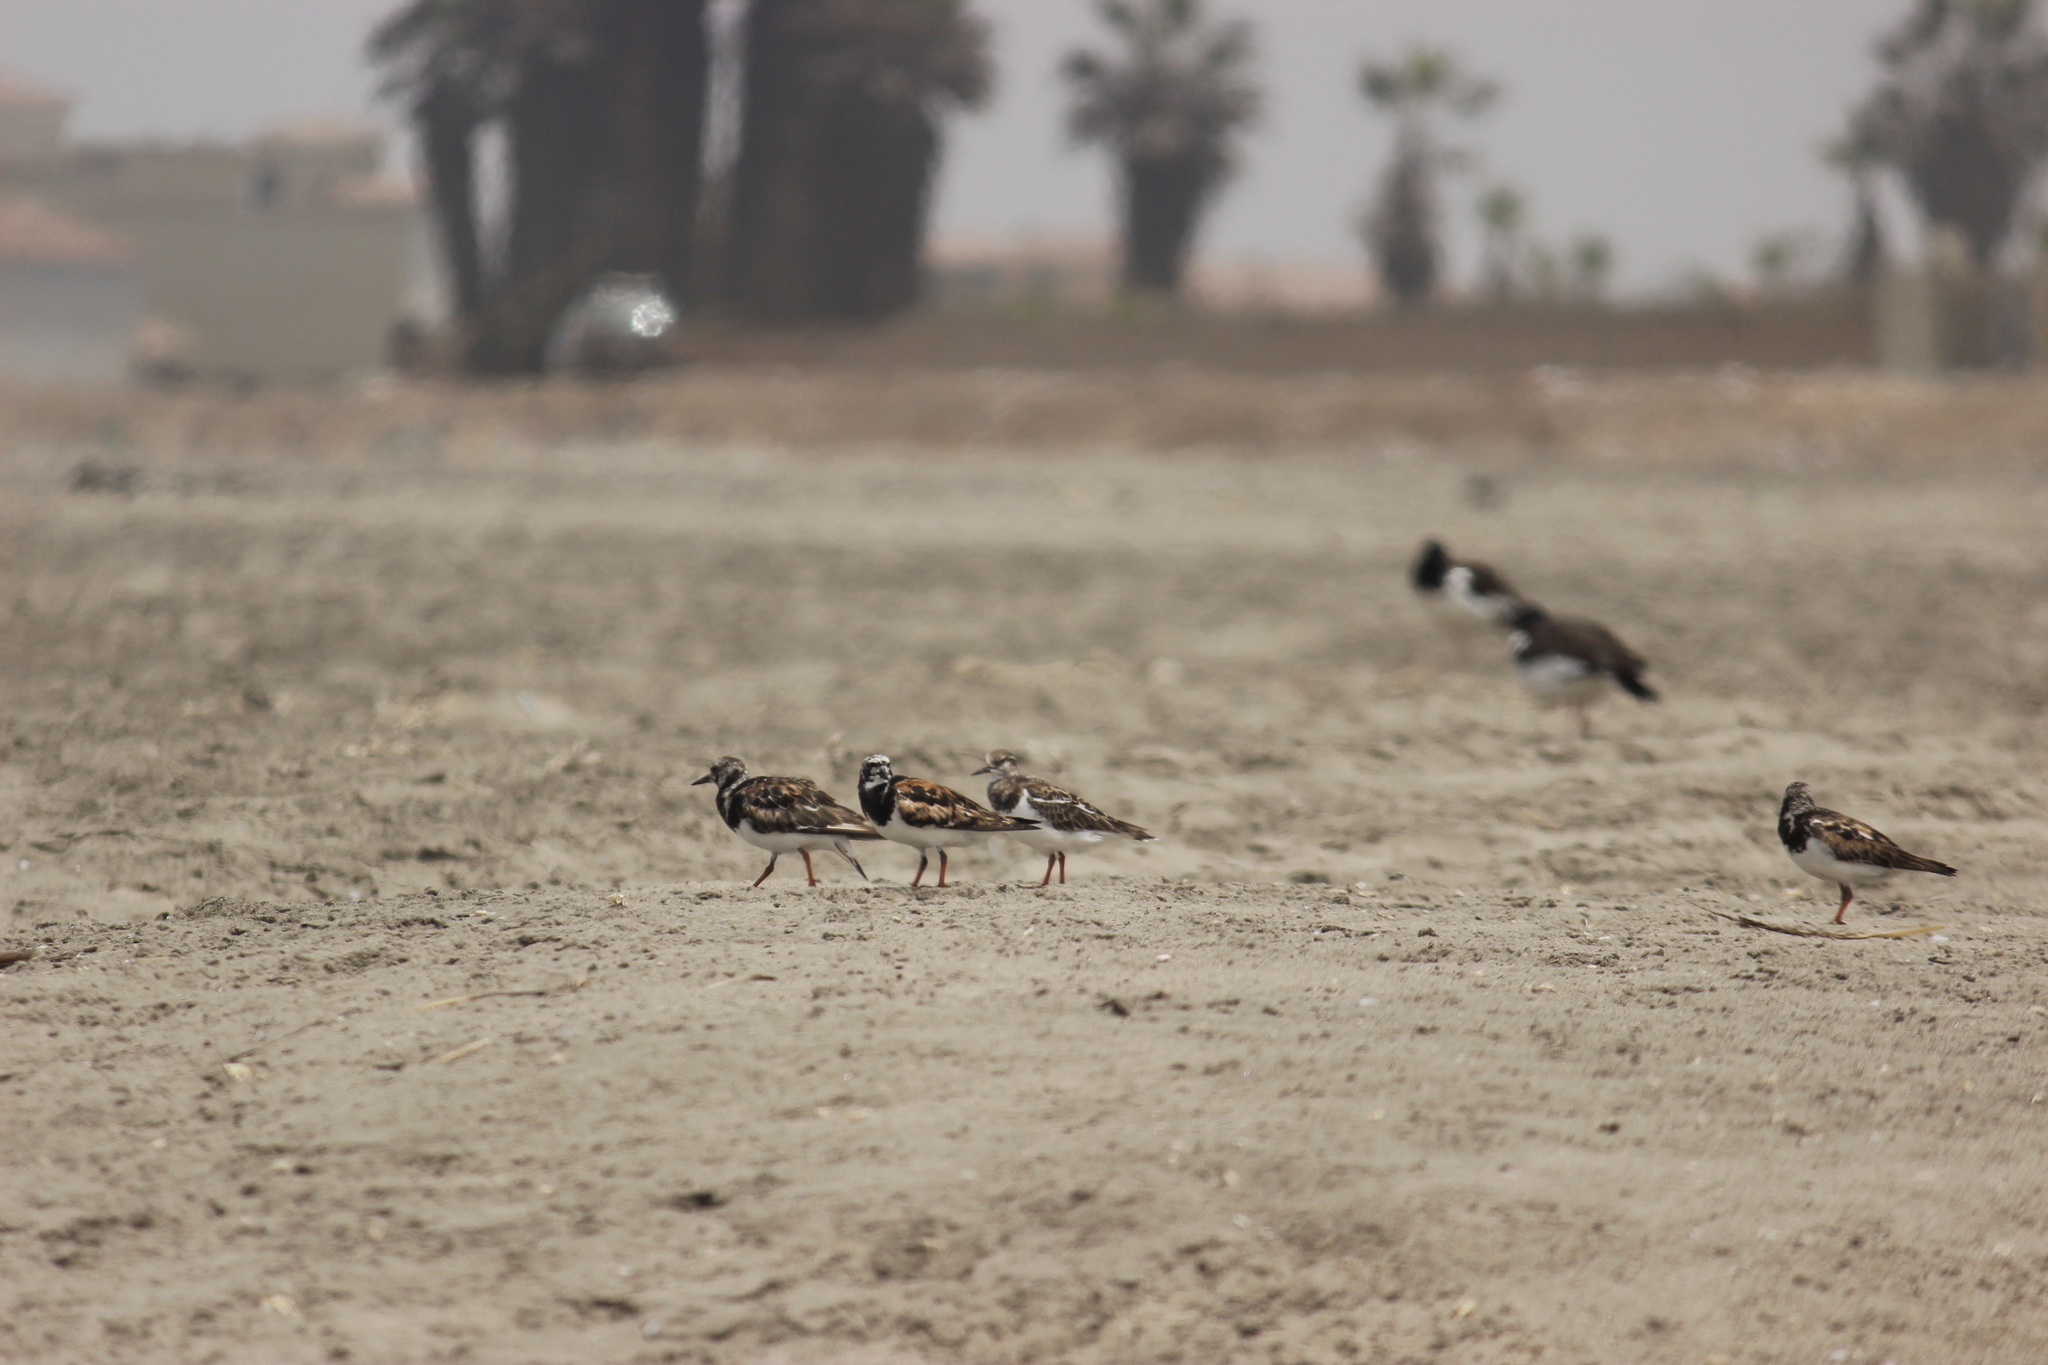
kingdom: Animalia
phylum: Chordata
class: Aves
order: Charadriiformes
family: Scolopacidae
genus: Arenaria
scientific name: Arenaria interpres
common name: Ruddy turnstone
